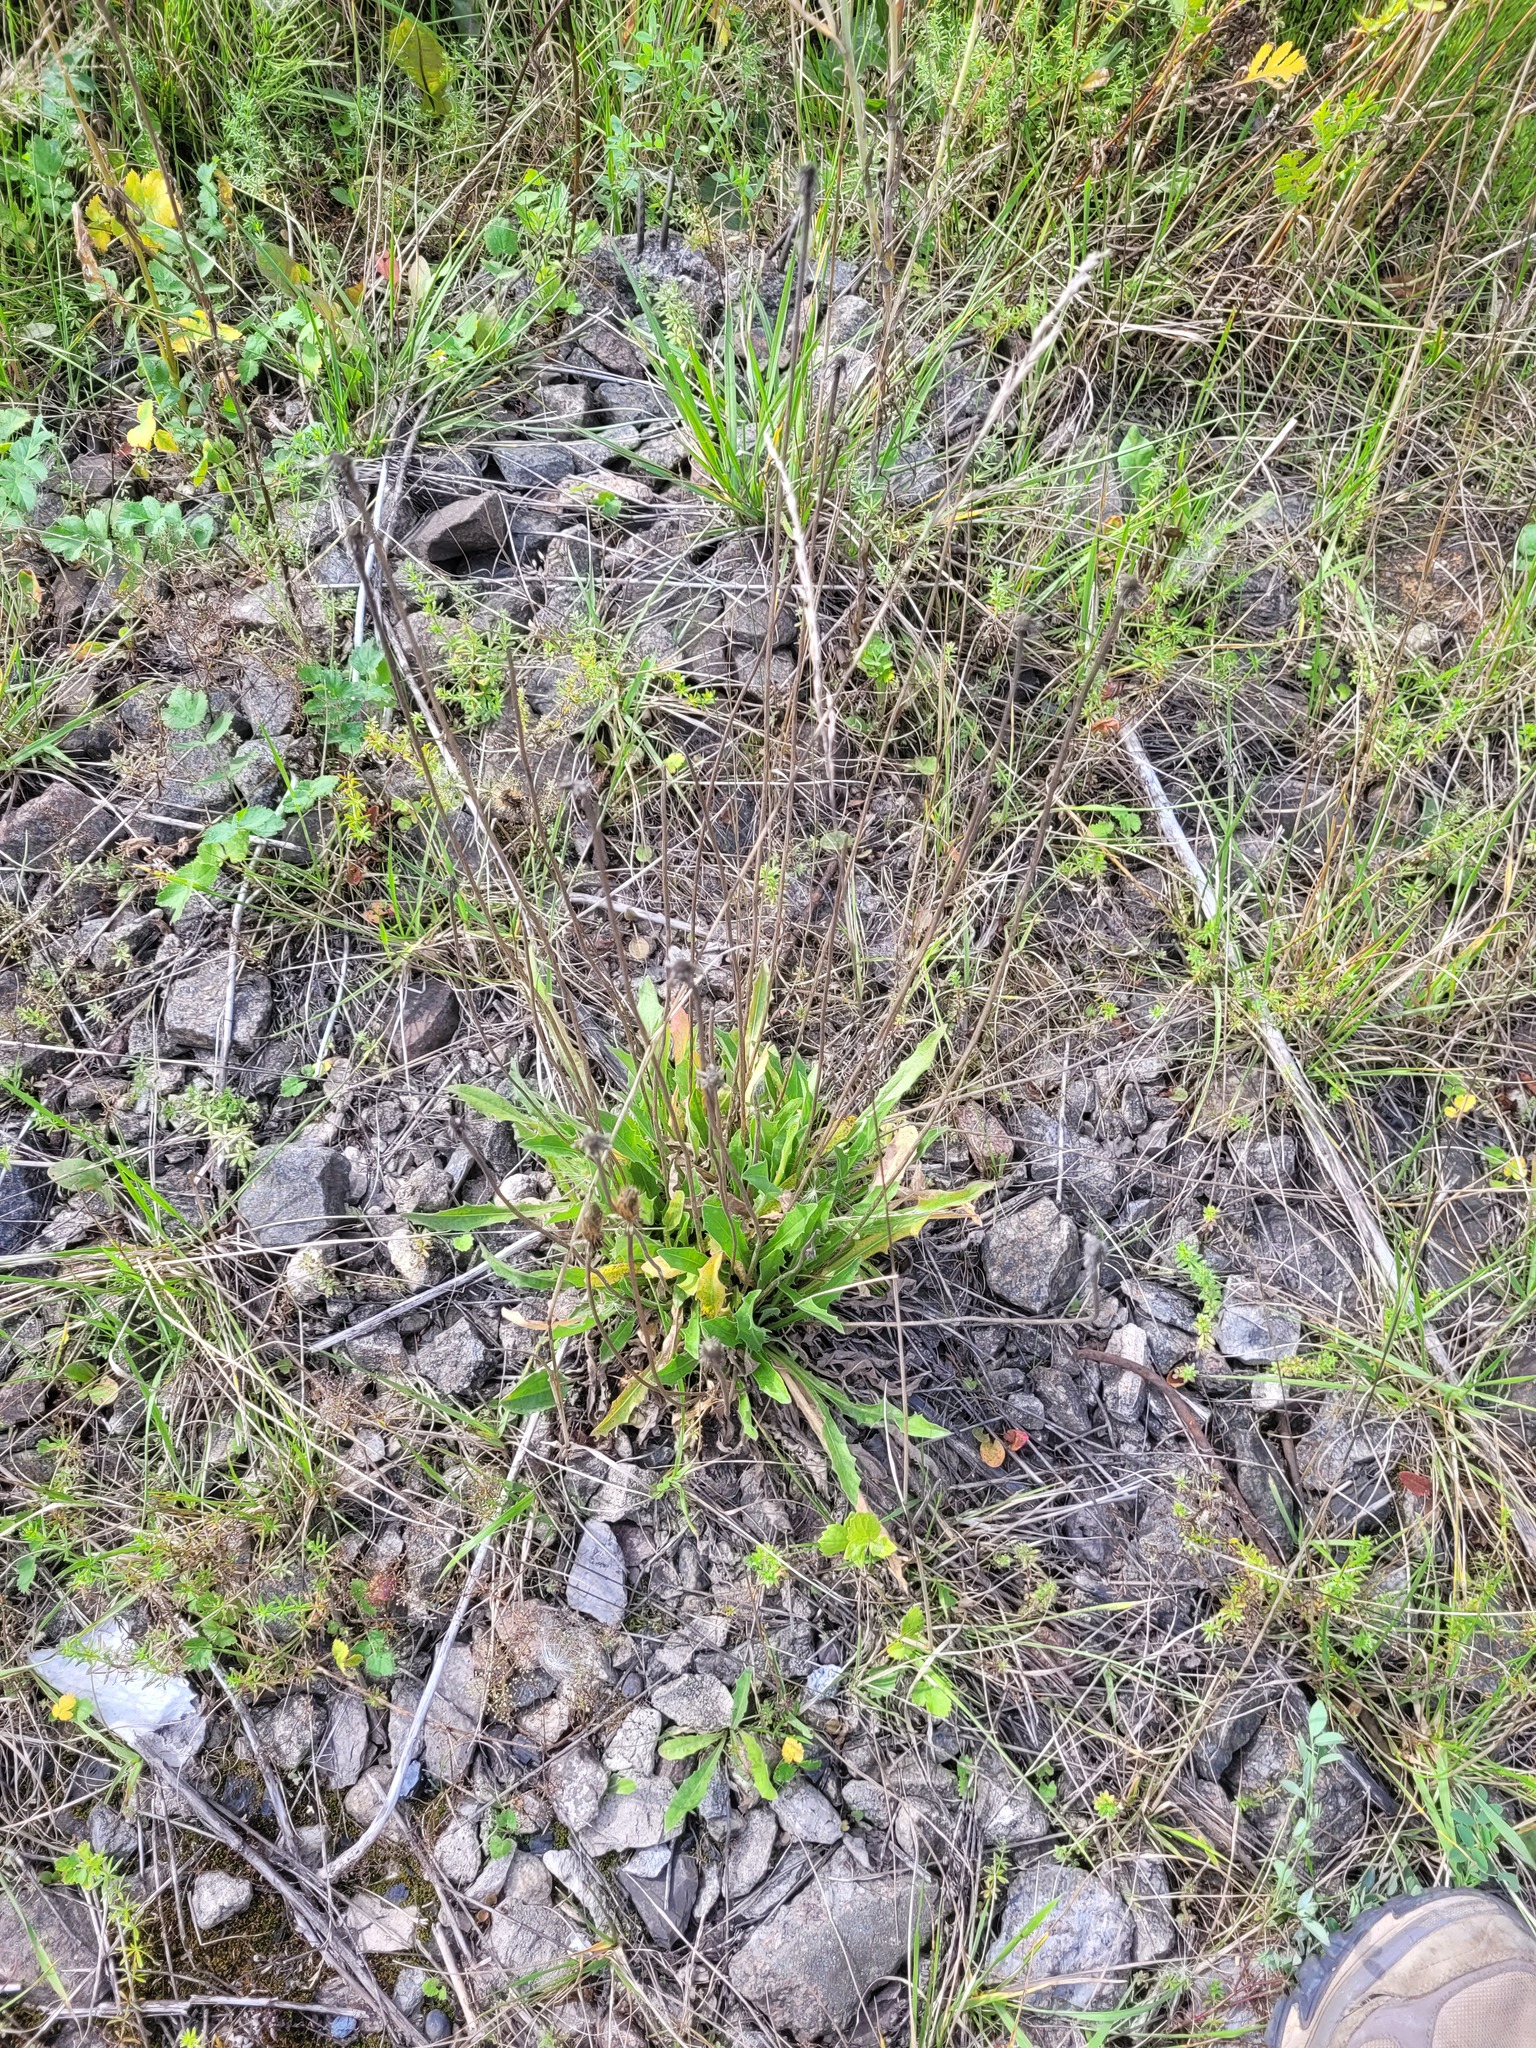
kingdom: Plantae
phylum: Tracheophyta
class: Magnoliopsida
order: Asterales
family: Asteraceae
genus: Leontodon
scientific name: Leontodon hispidus
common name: Rough hawkbit
